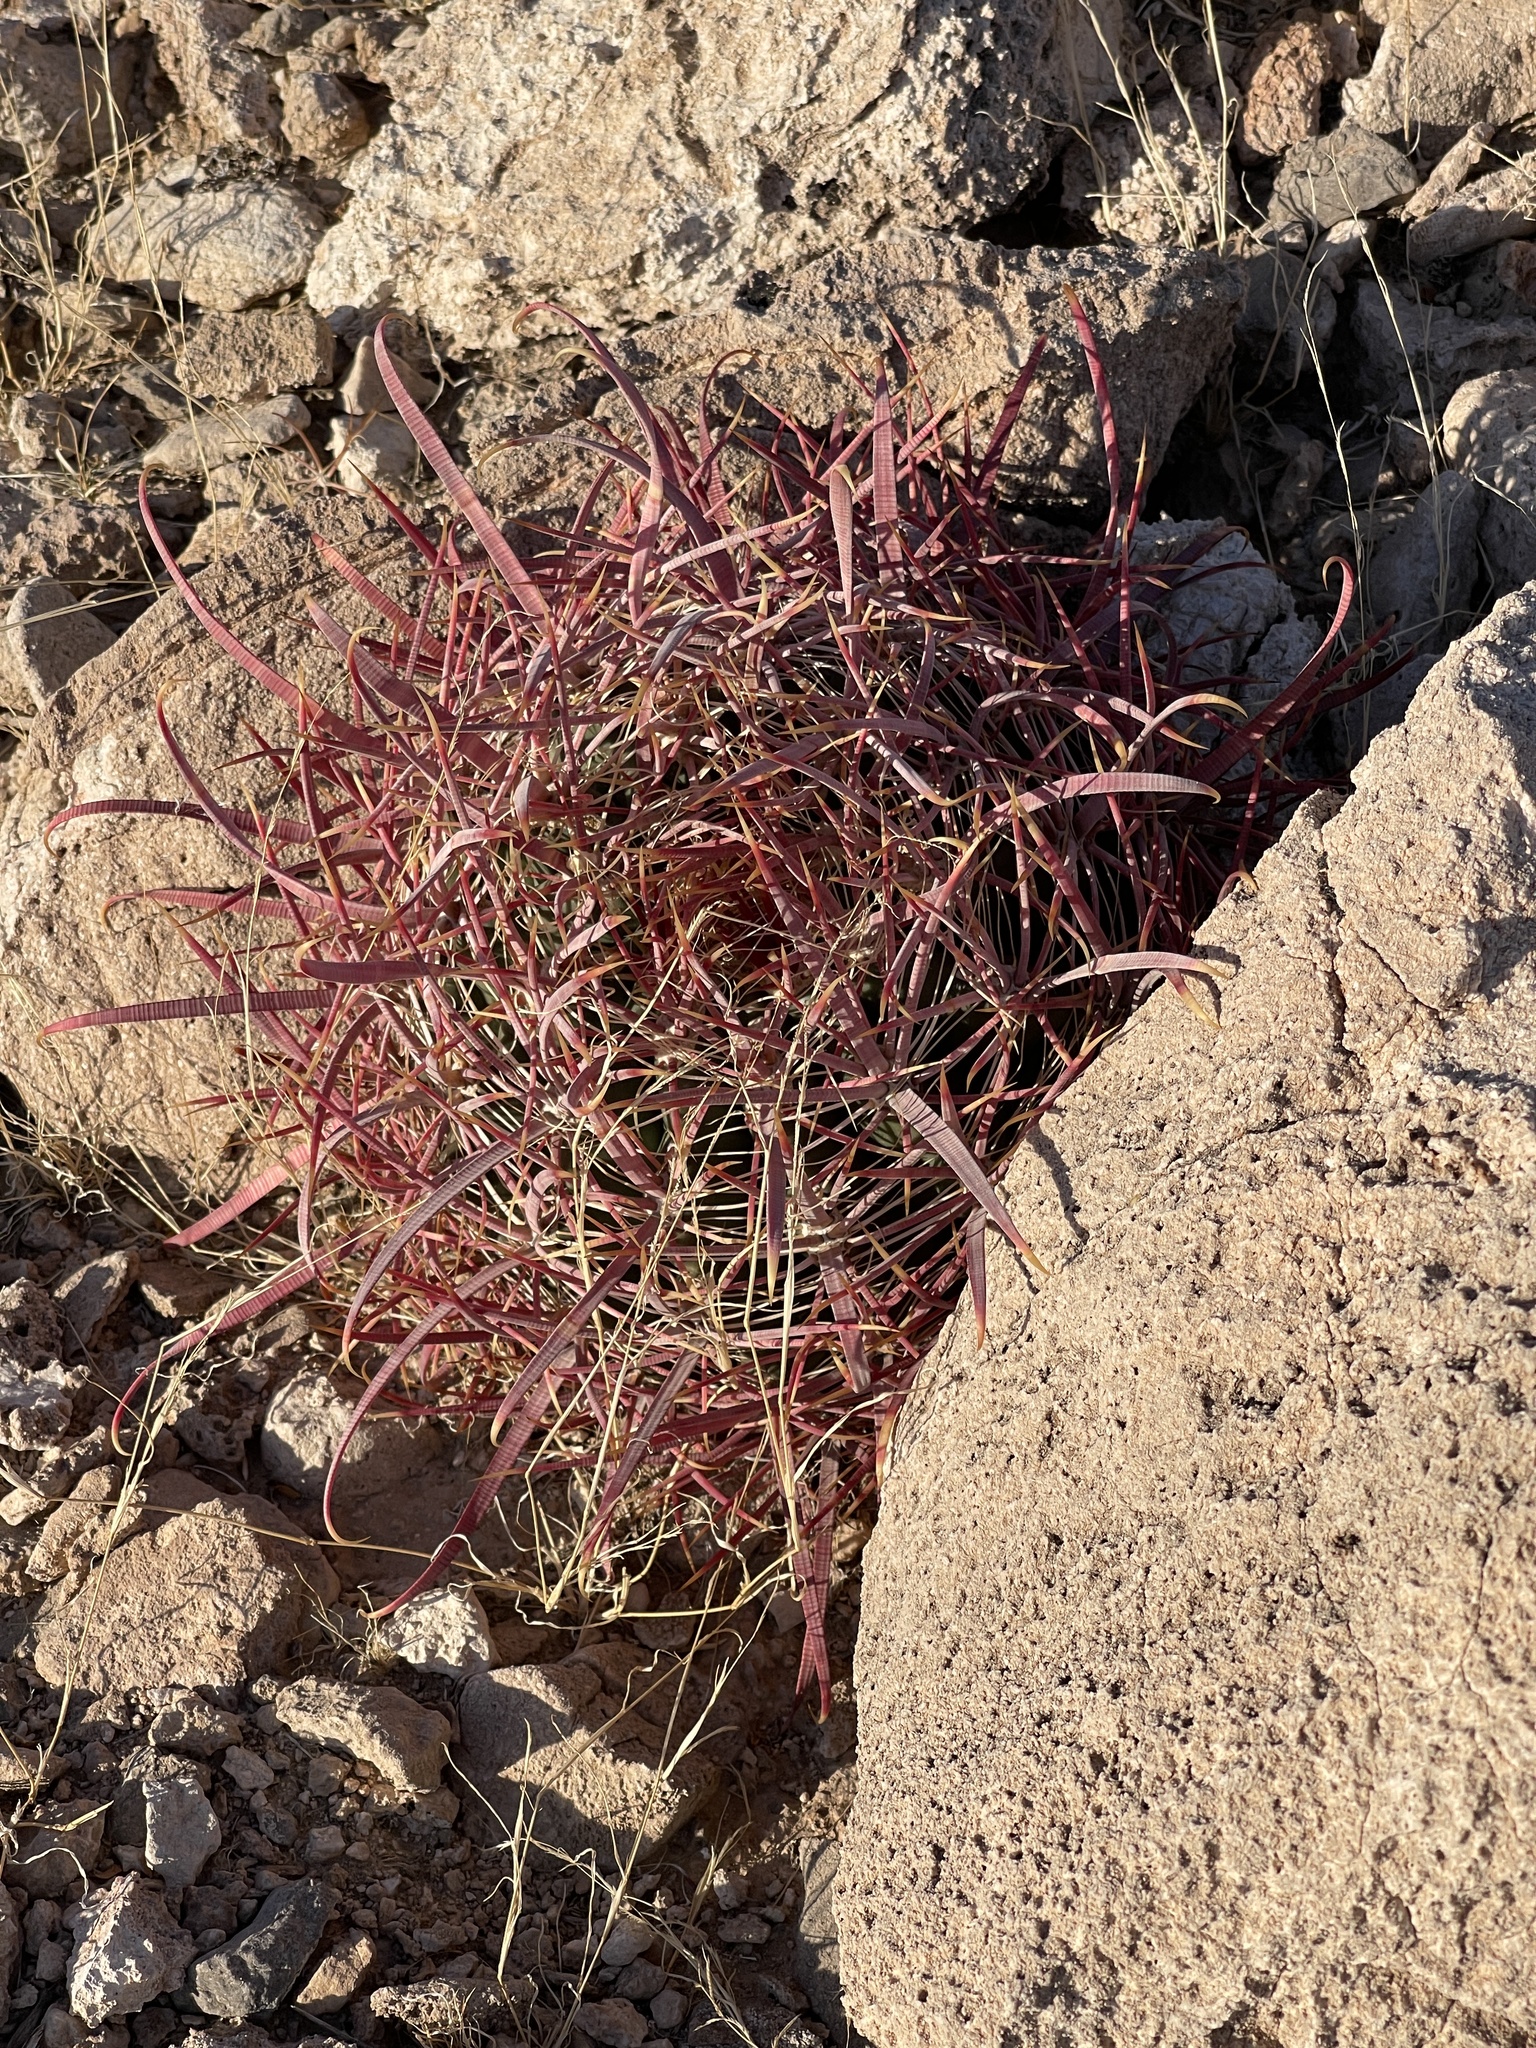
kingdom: Plantae
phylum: Tracheophyta
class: Magnoliopsida
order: Caryophyllales
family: Cactaceae
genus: Ferocactus
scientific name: Ferocactus cylindraceus
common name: California barrel cactus
